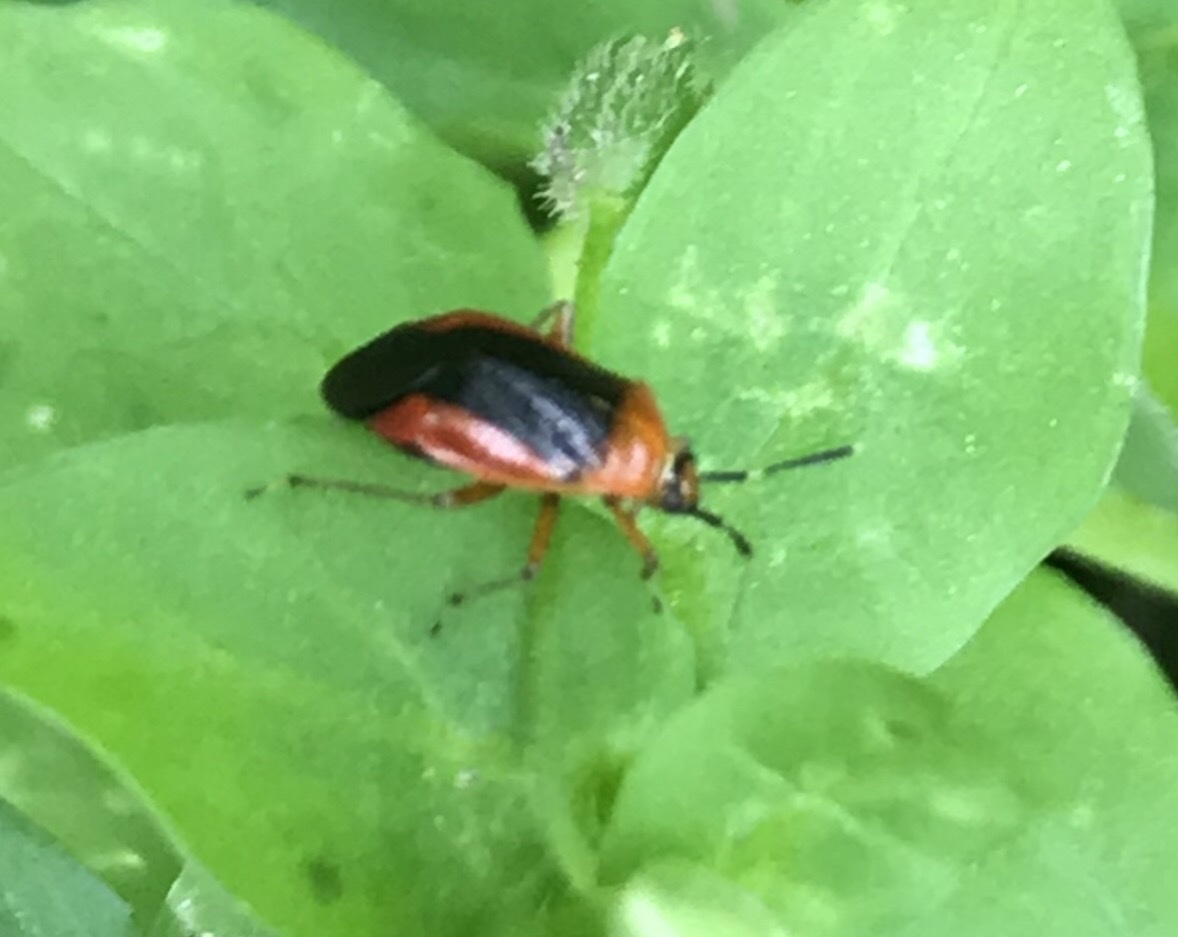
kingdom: Animalia
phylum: Arthropoda
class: Insecta
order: Hemiptera
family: Miridae
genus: Metriorrhynchomiris
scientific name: Metriorrhynchomiris dislocatus
